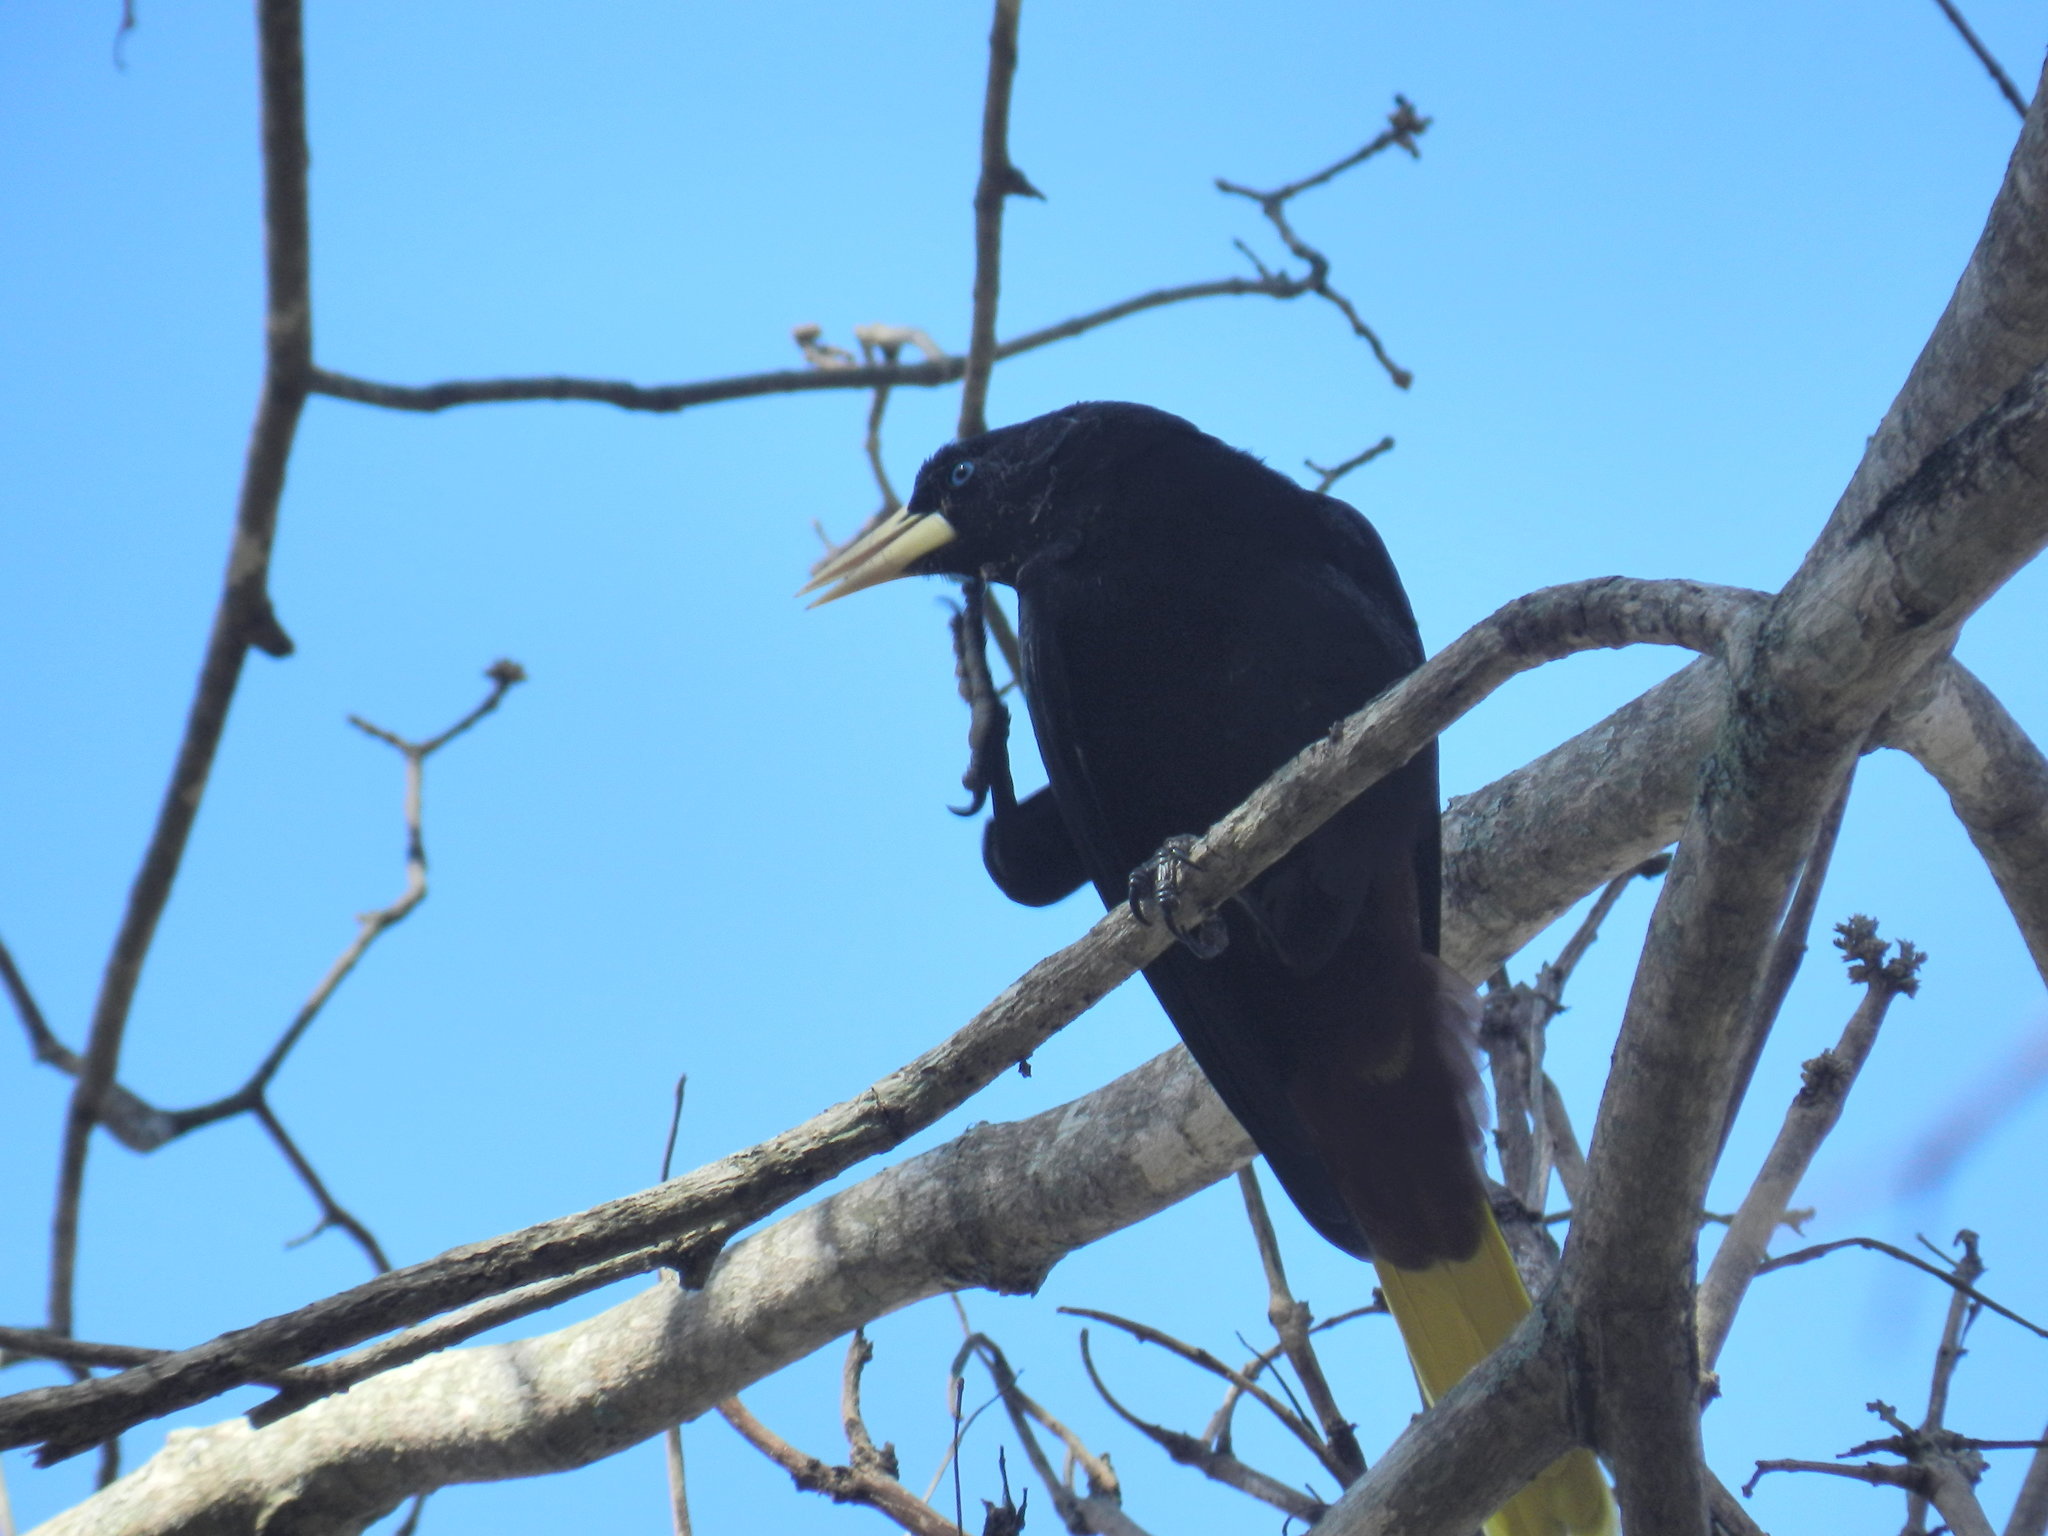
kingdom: Animalia
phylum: Chordata
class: Aves
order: Passeriformes
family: Icteridae
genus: Psarocolius
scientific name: Psarocolius decumanus
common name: Crested oropendola
